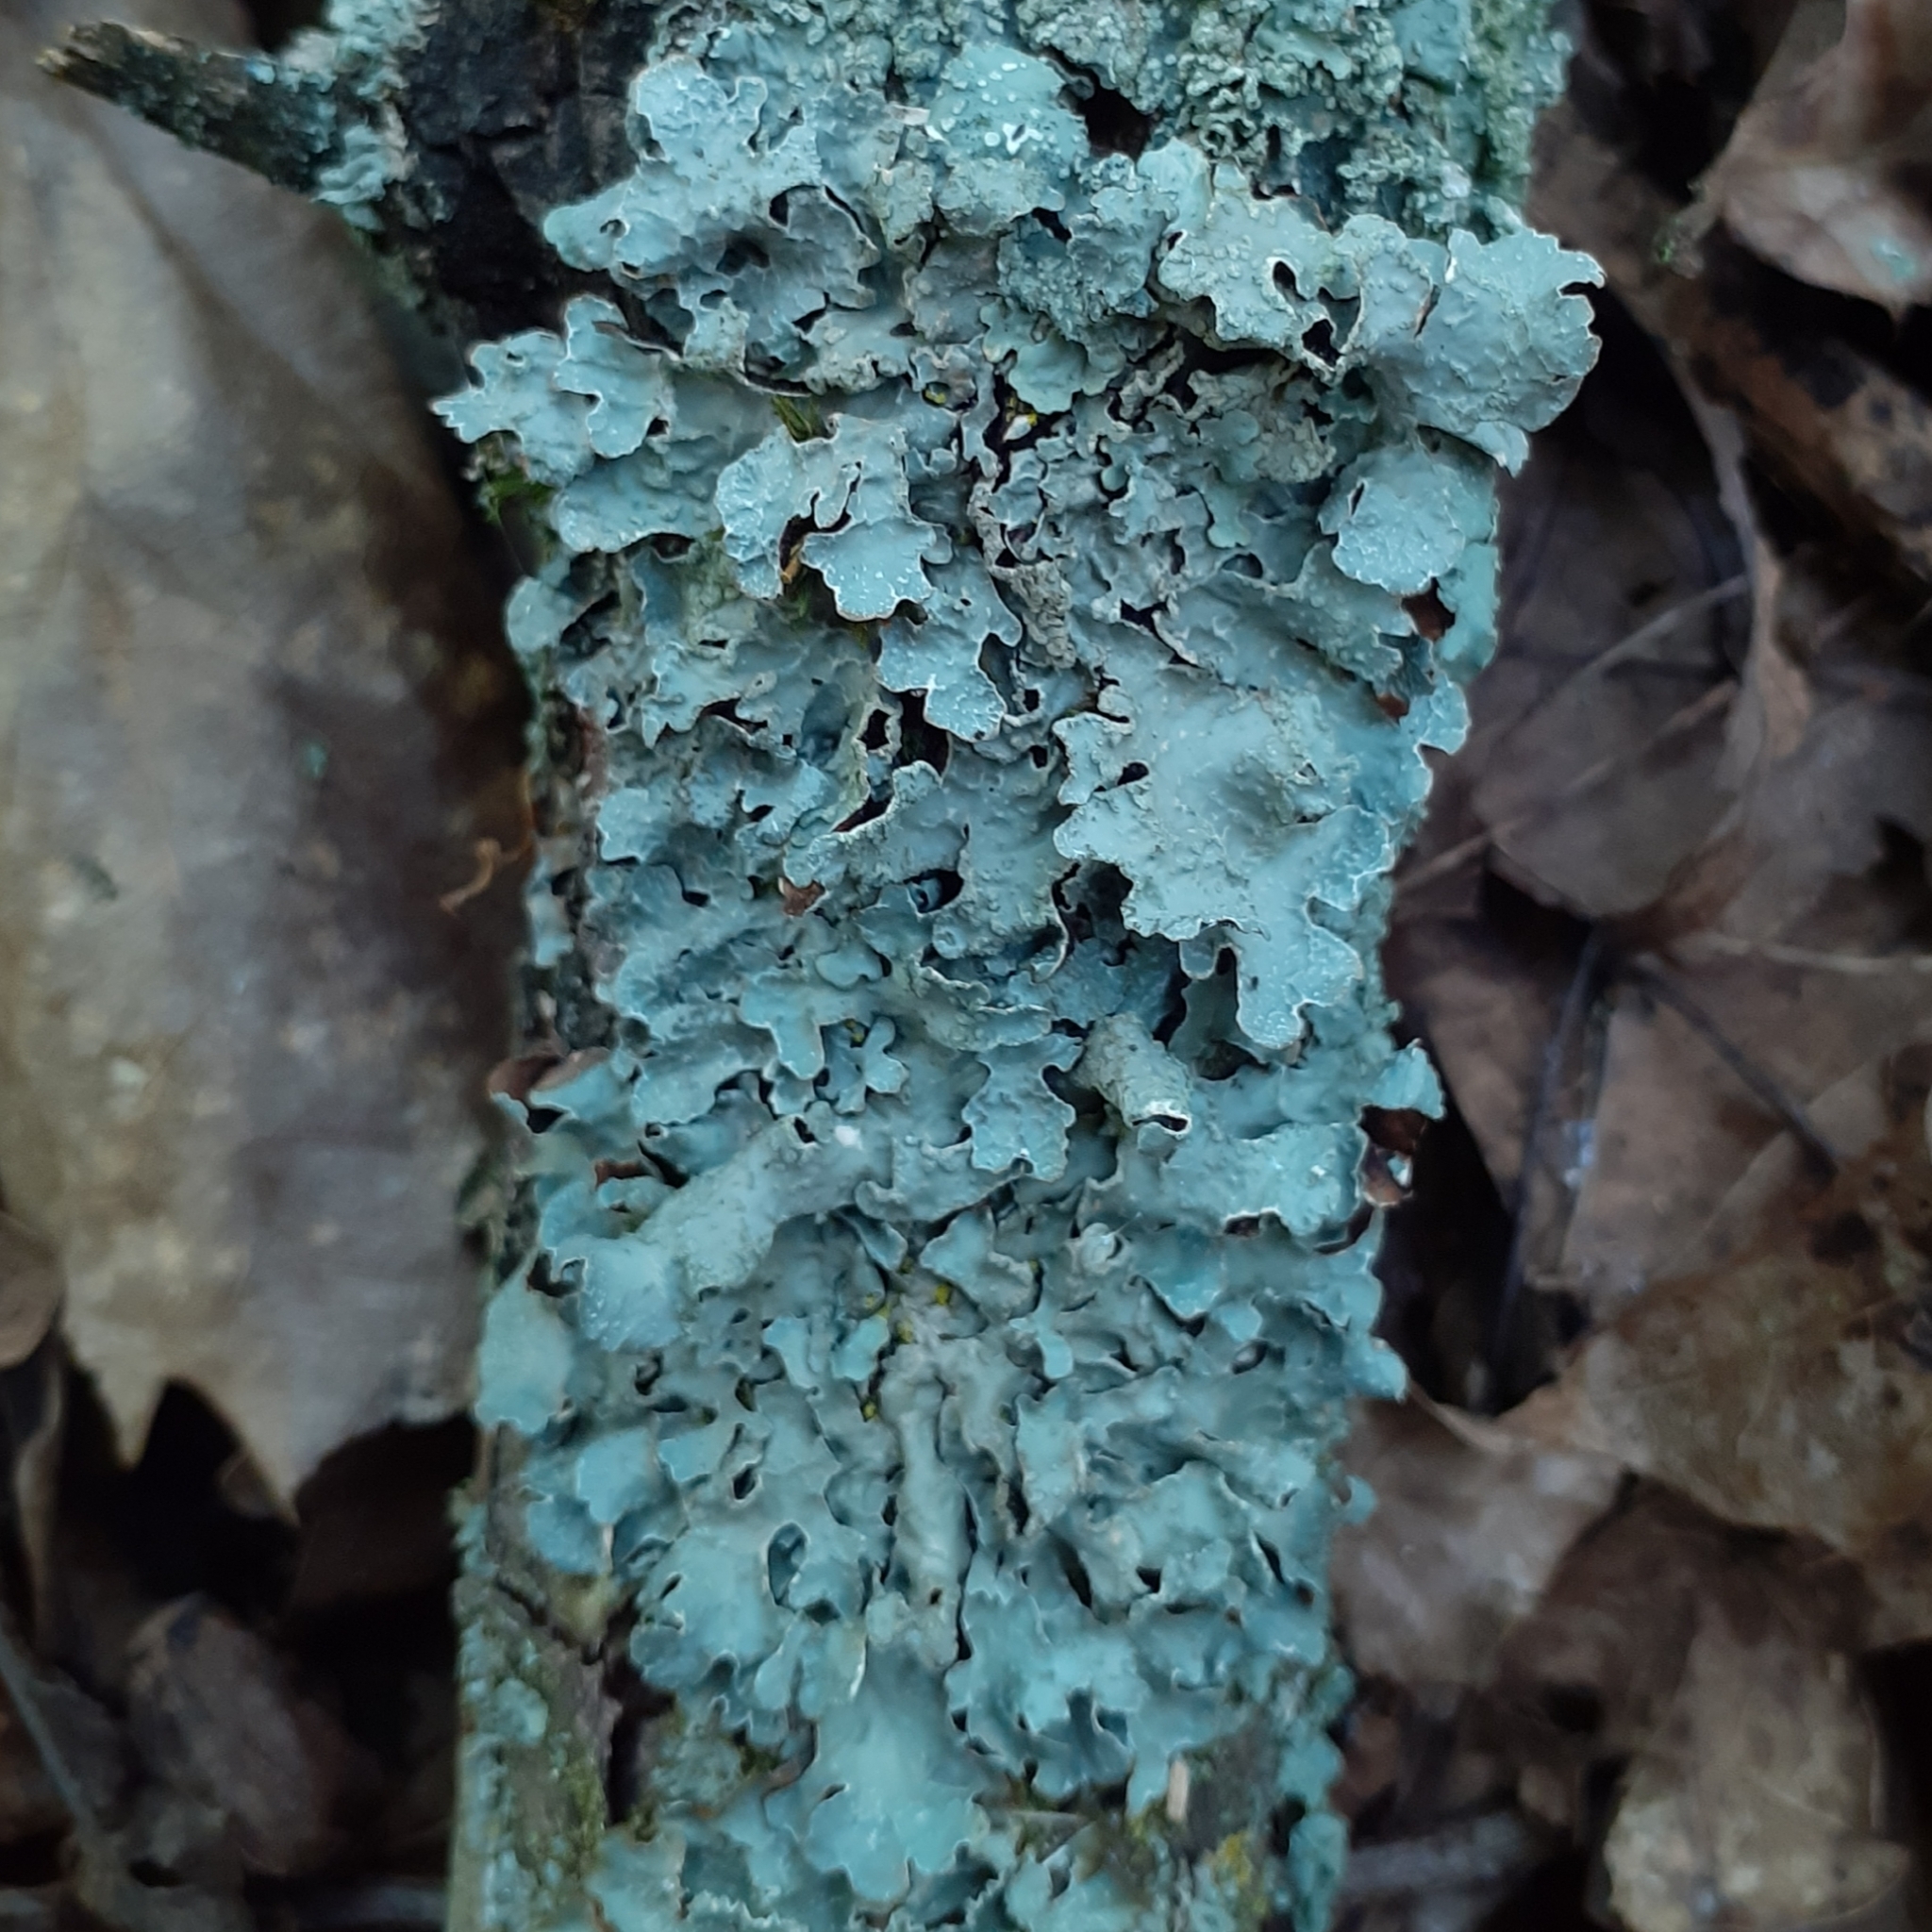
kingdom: Fungi
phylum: Ascomycota
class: Lecanoromycetes
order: Lecanorales
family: Parmeliaceae
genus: Parmelia
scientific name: Parmelia sulcata
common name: Netted shield lichen
